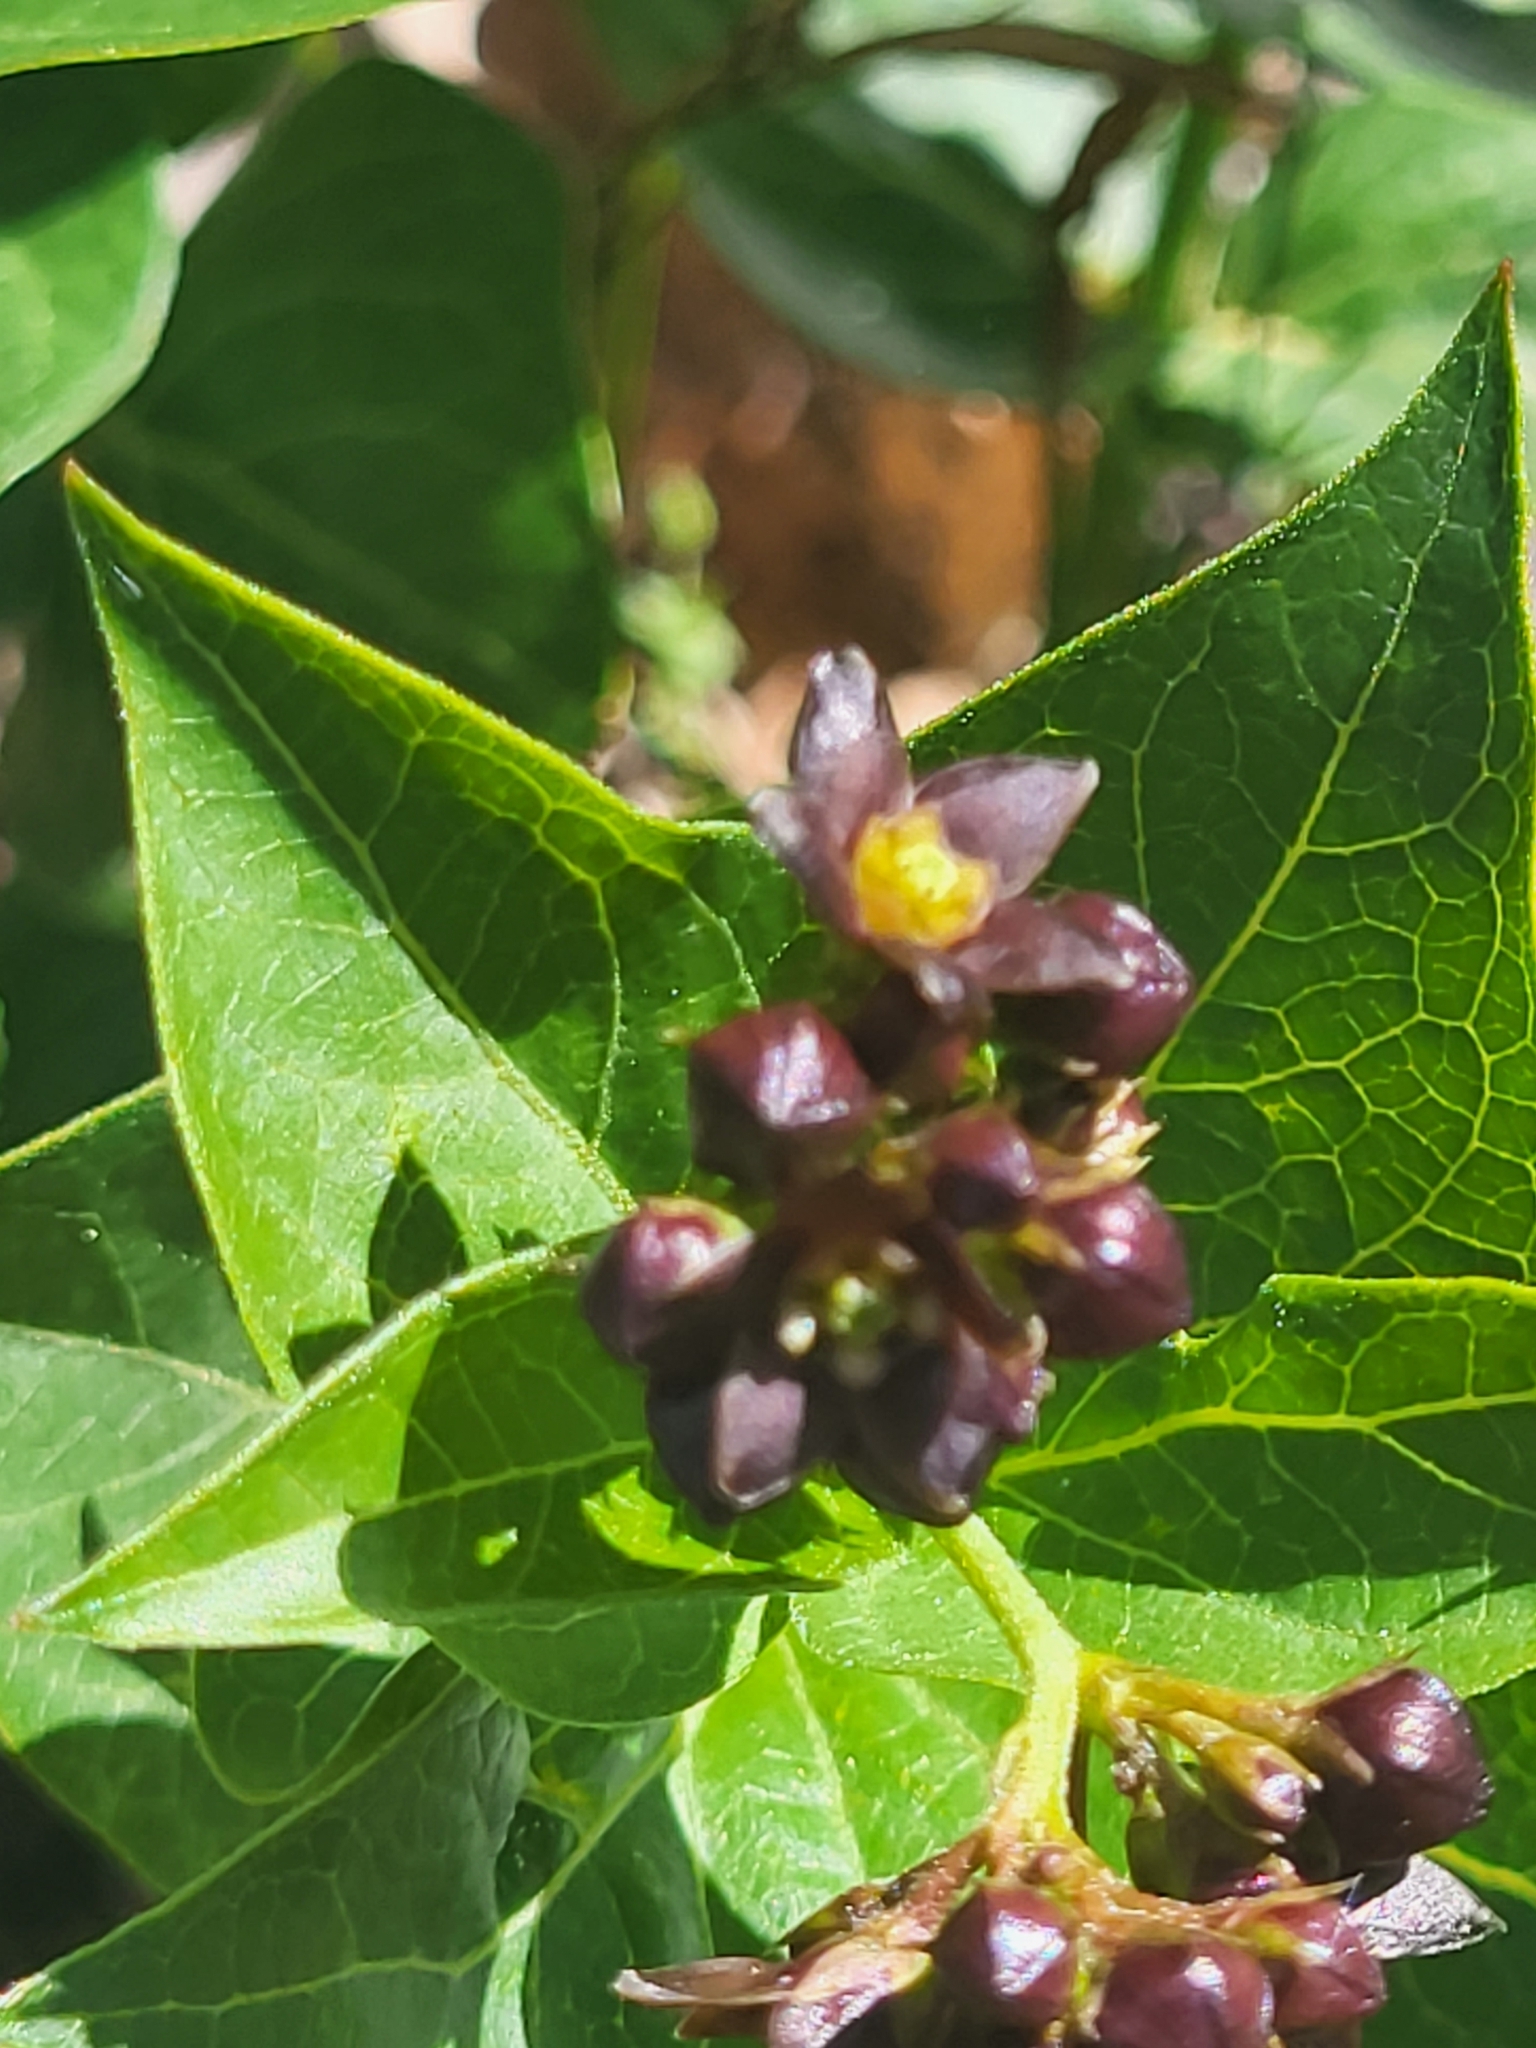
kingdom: Plantae
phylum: Tracheophyta
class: Magnoliopsida
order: Gentianales
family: Apocynaceae
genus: Vincetoxicum
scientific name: Vincetoxicum funebre
